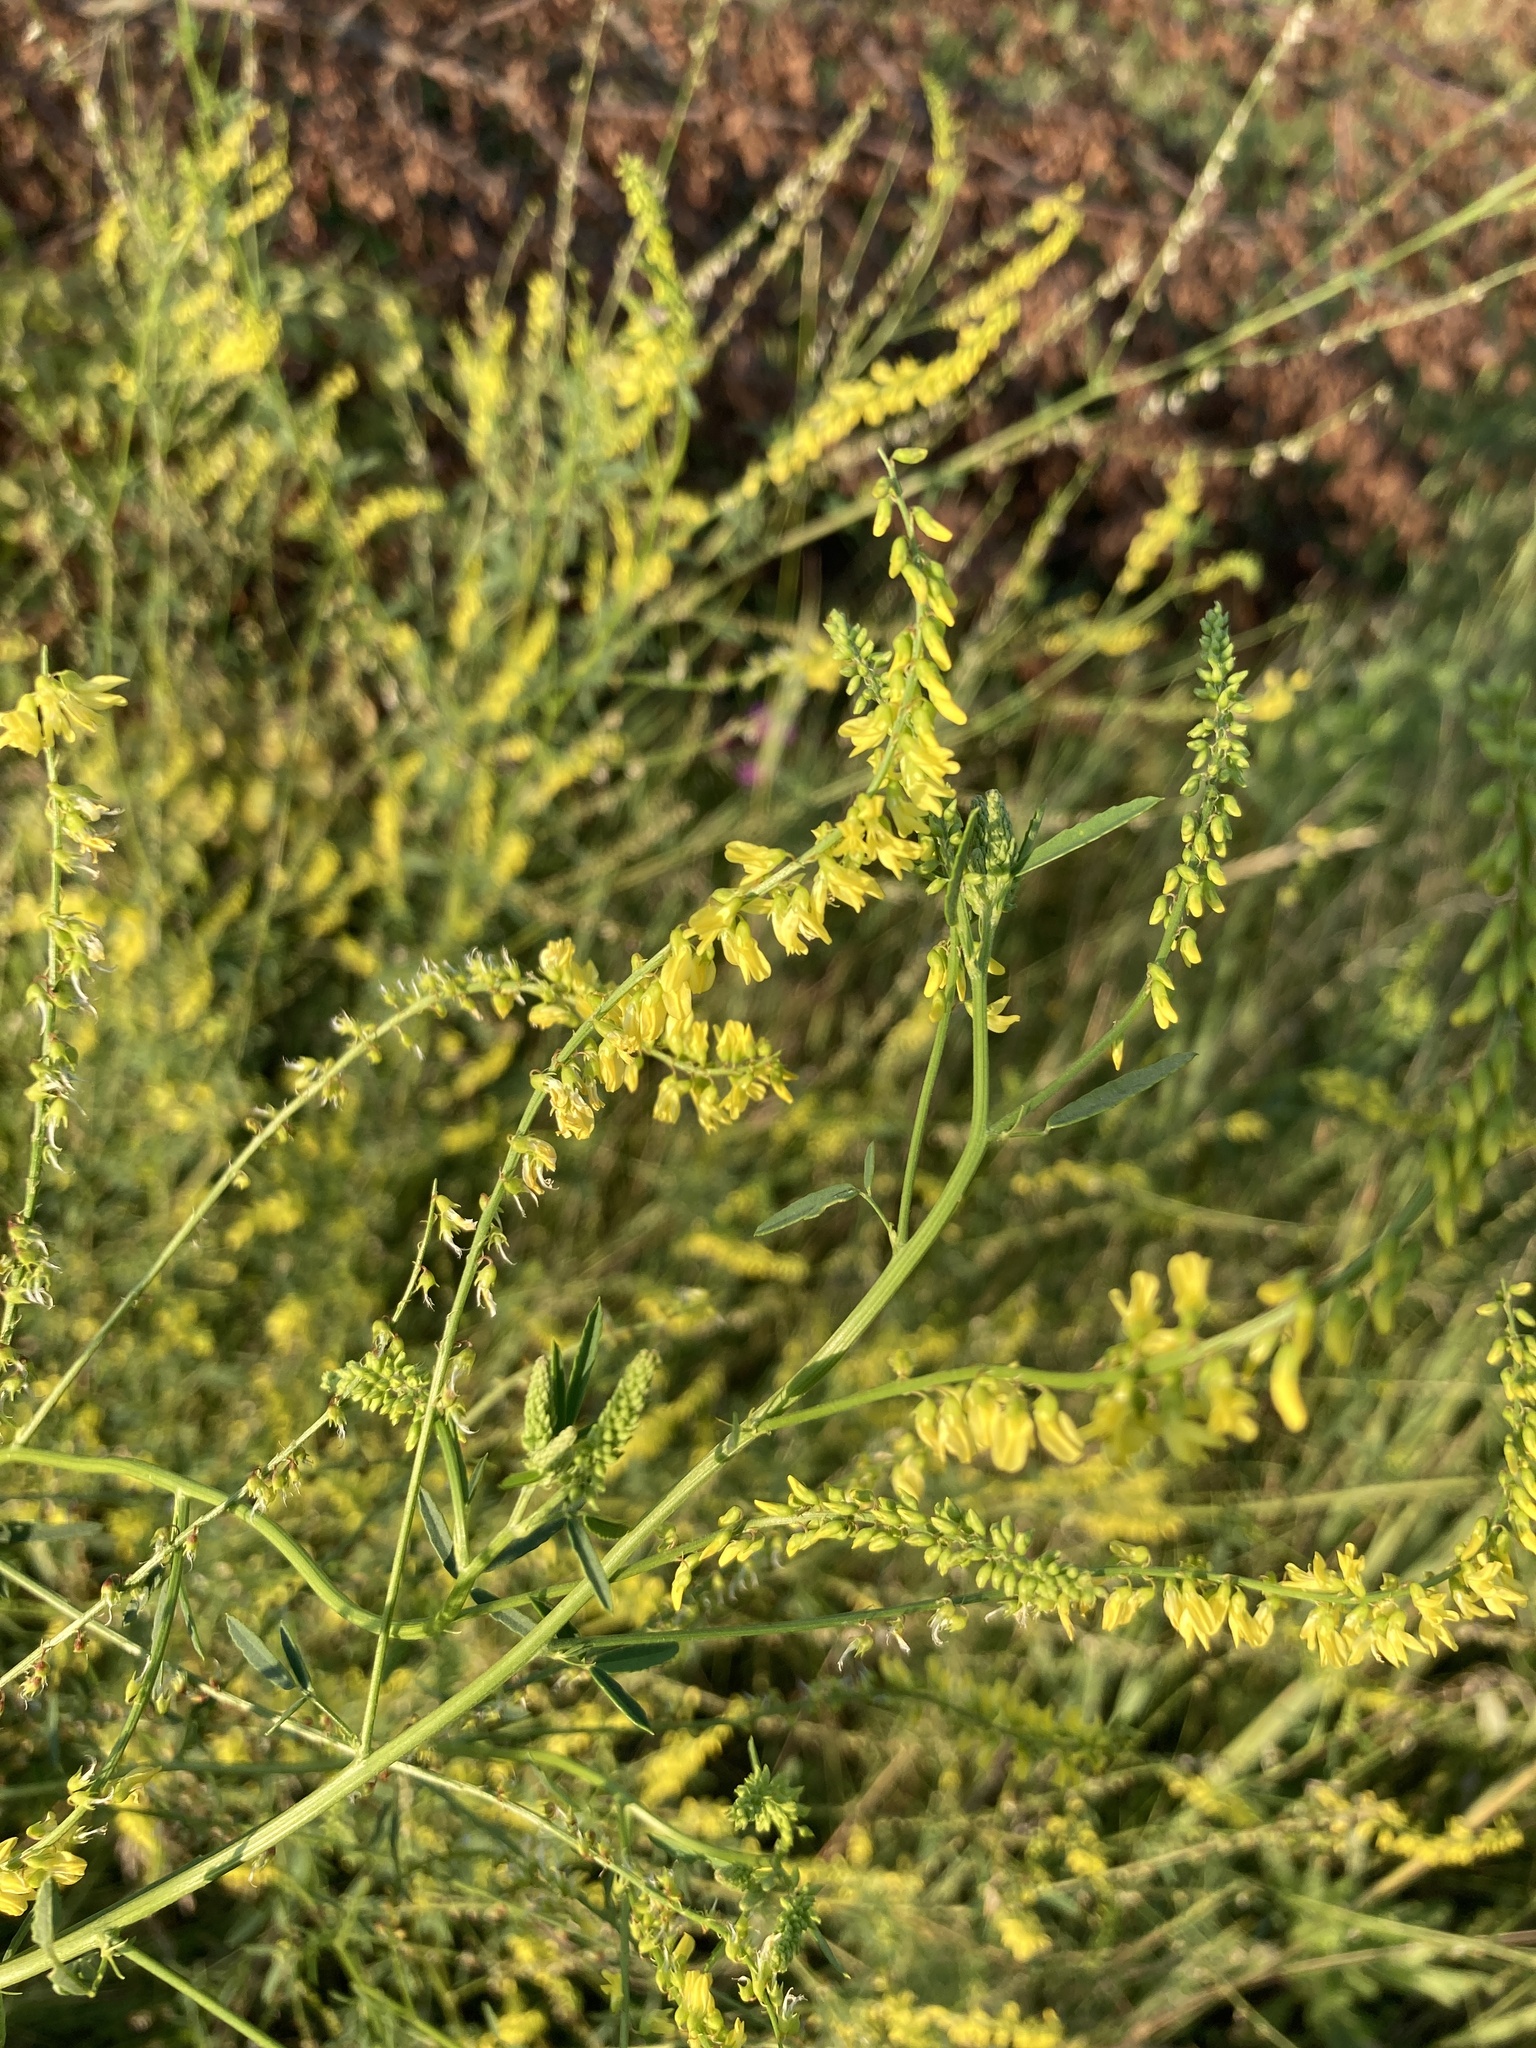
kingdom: Plantae
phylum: Tracheophyta
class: Magnoliopsida
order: Fabales
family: Fabaceae
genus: Melilotus
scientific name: Melilotus officinalis
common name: Sweetclover
